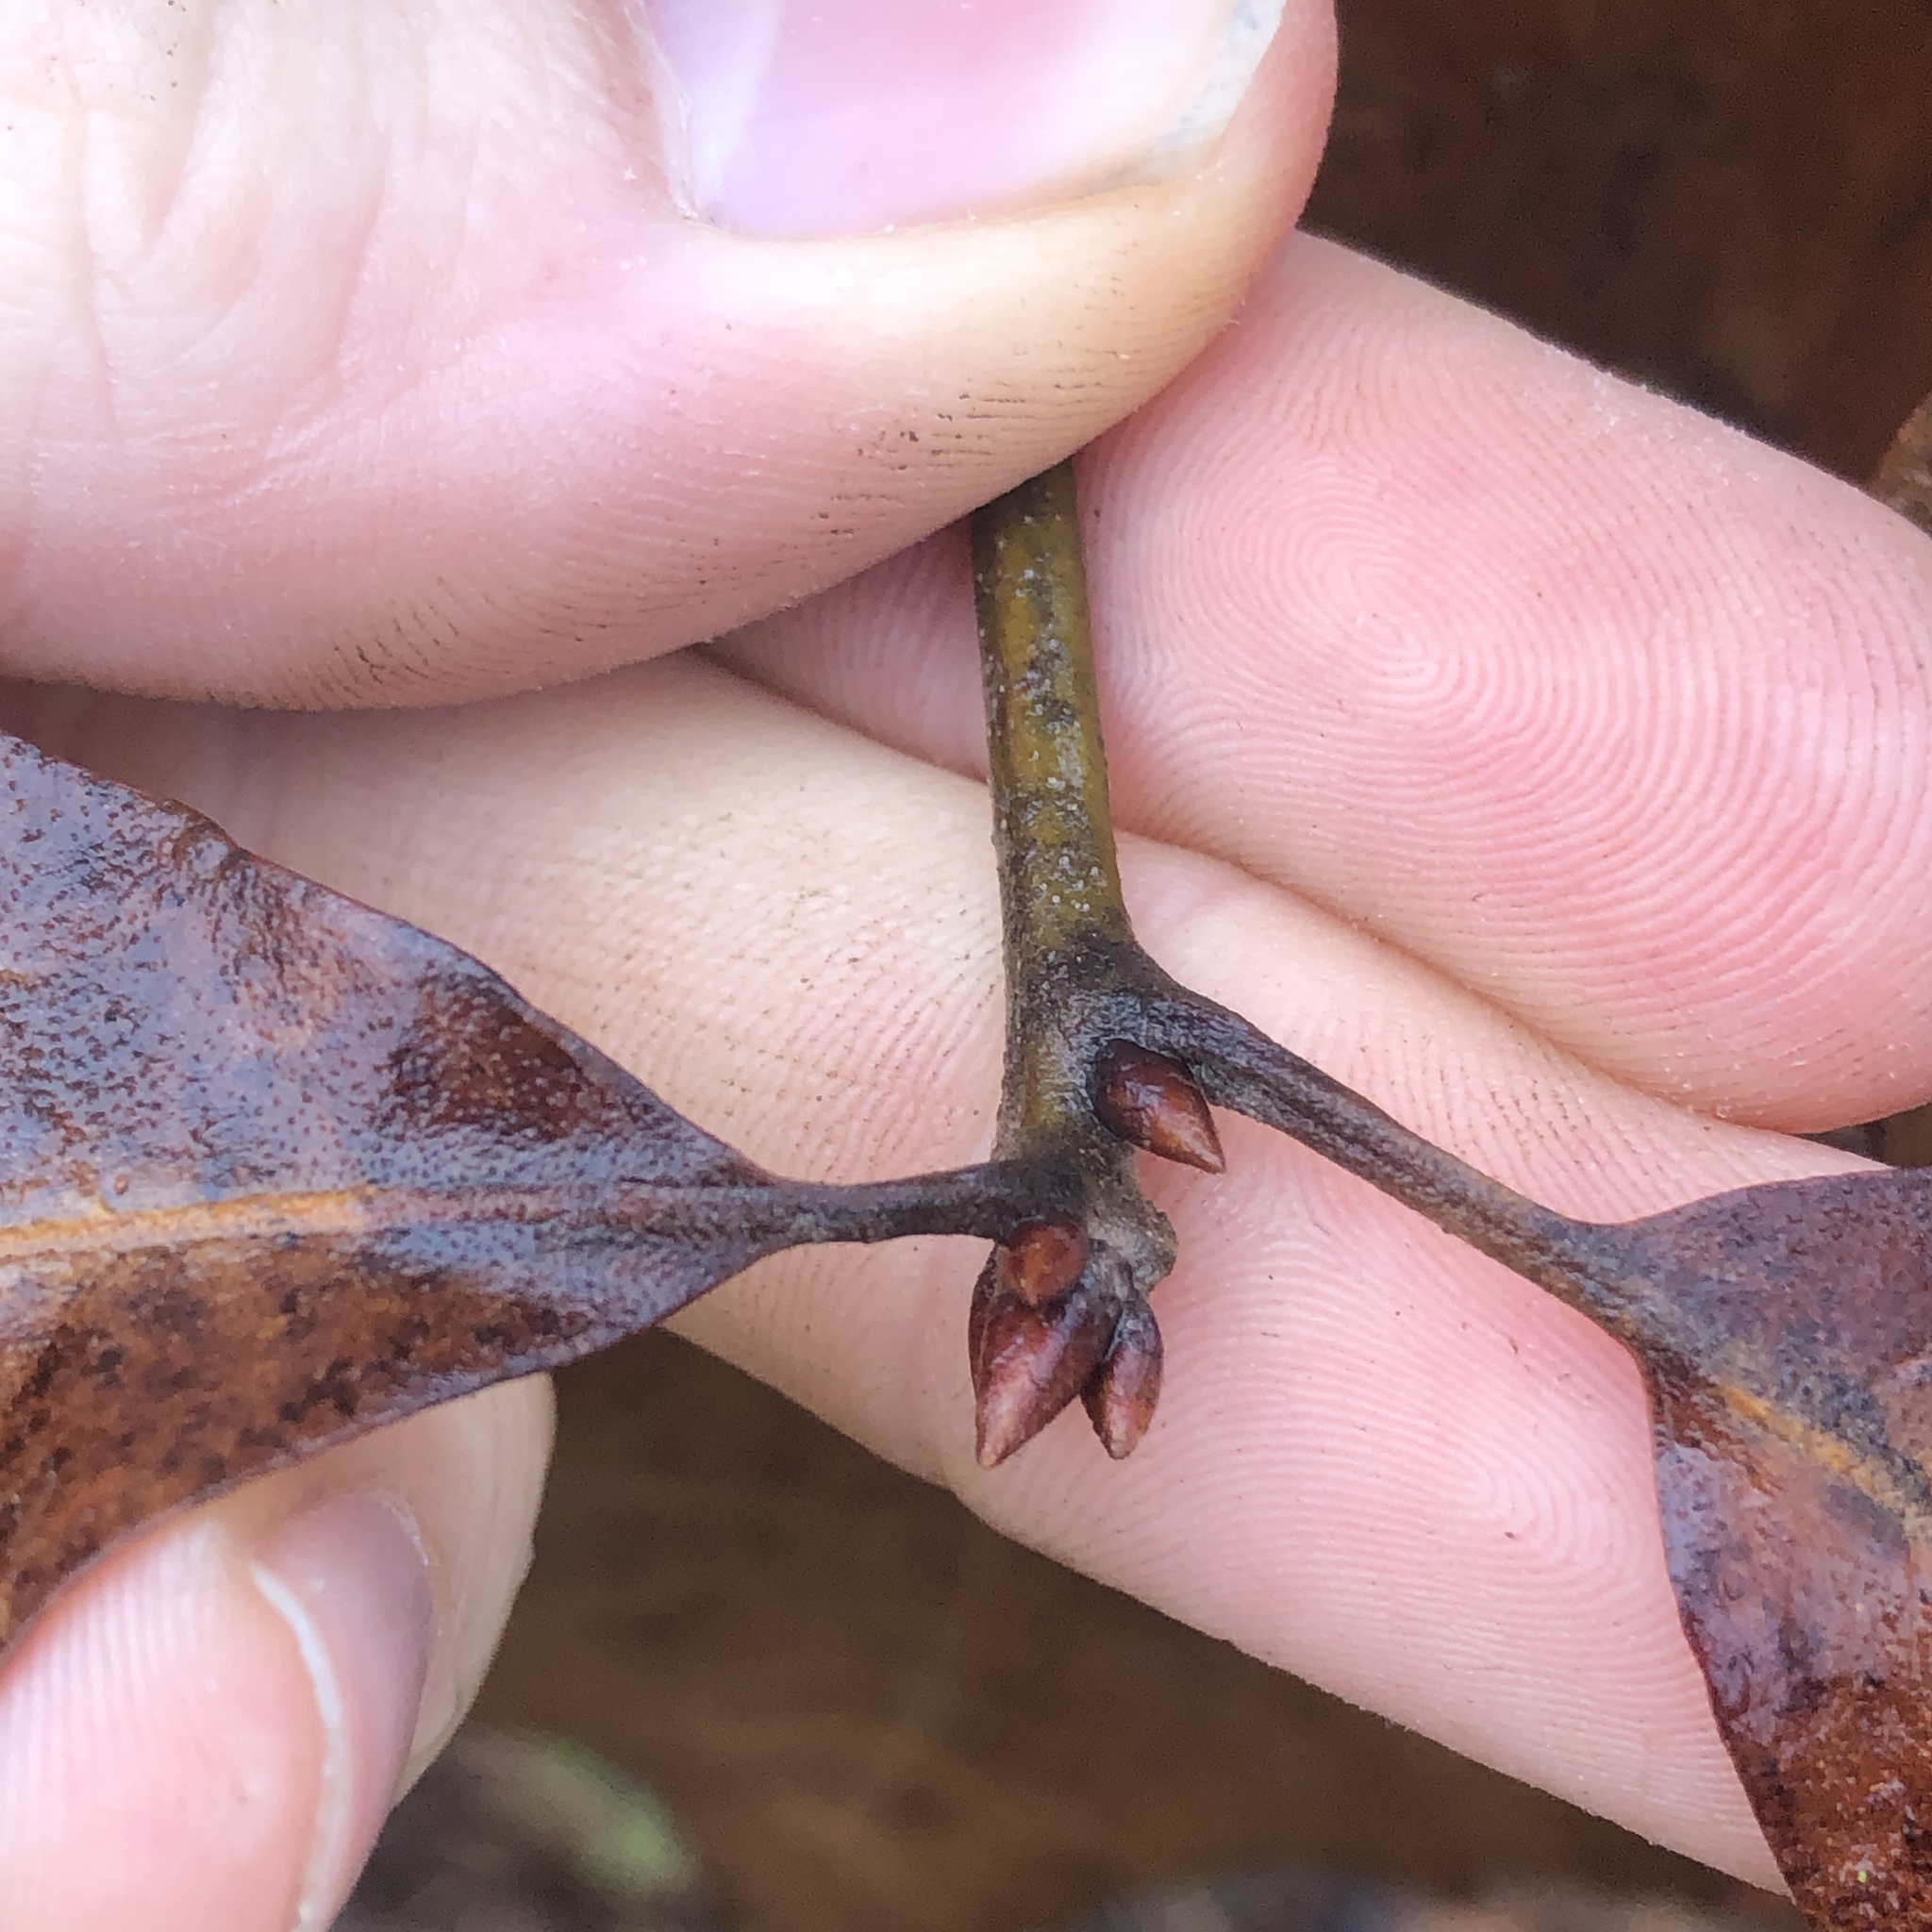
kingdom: Plantae
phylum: Tracheophyta
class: Magnoliopsida
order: Fagales
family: Fagaceae
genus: Quercus
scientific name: Quercus falcata
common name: Southern red oak
